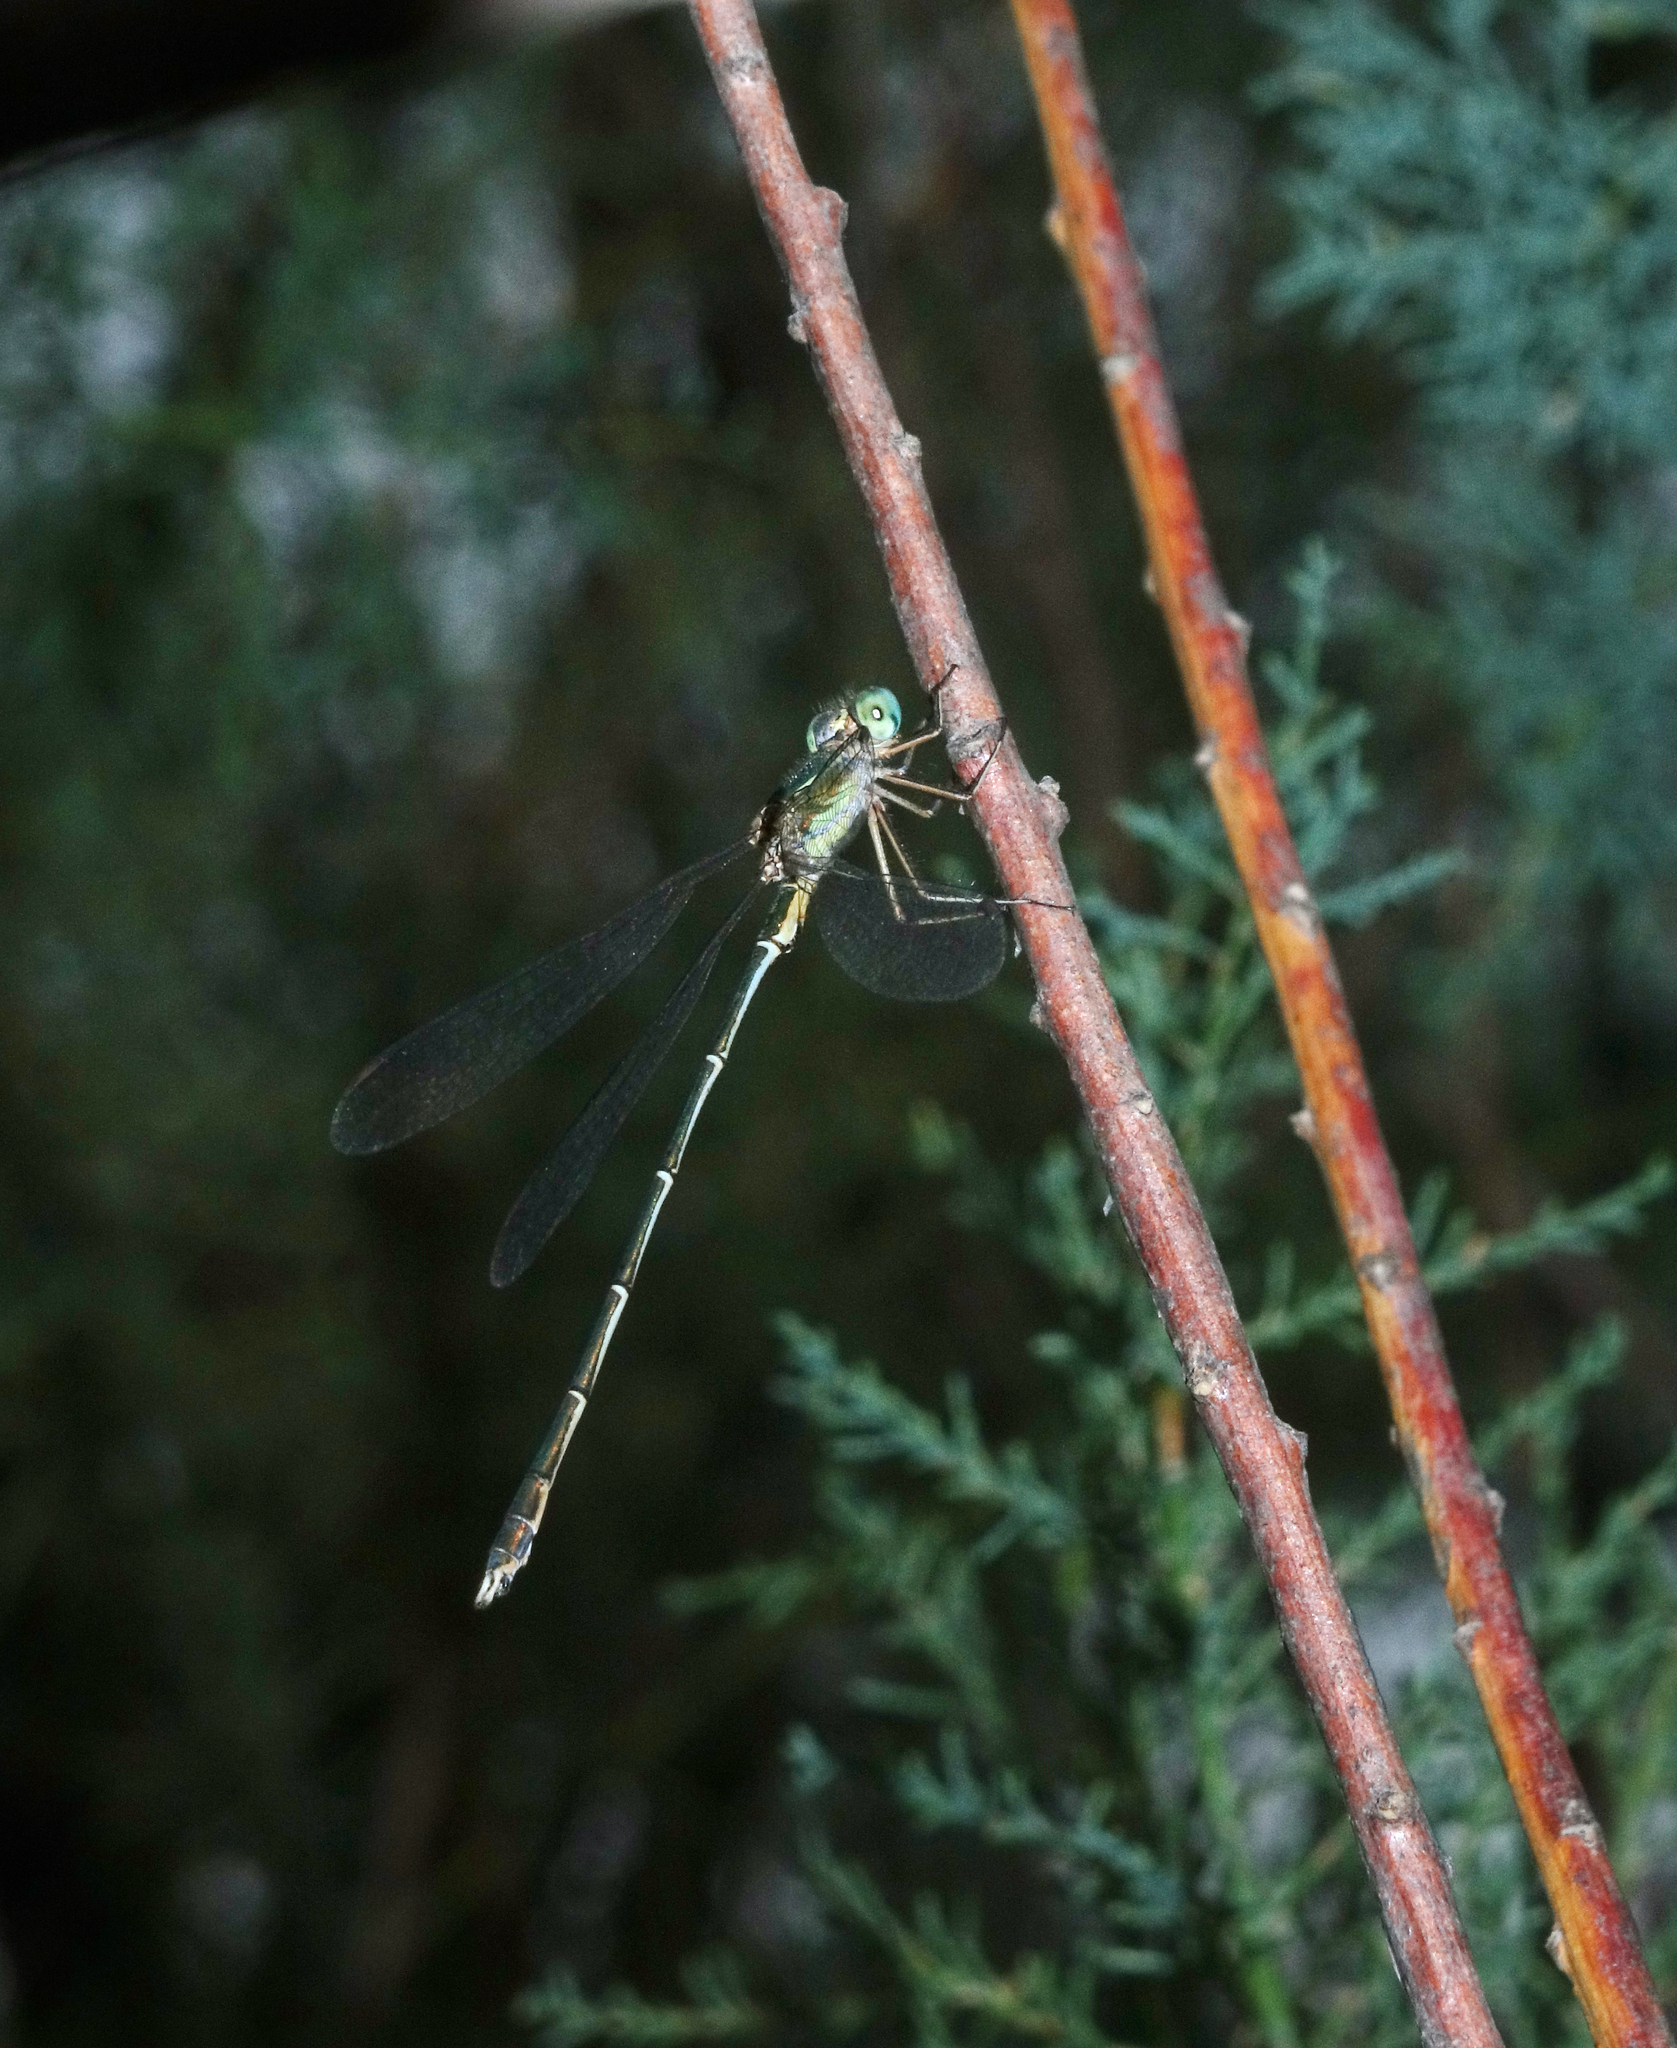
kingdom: Animalia
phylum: Arthropoda
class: Insecta
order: Odonata
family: Lestidae
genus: Chalcolestes
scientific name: Chalcolestes parvidens
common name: Eastern willow spreadwing
